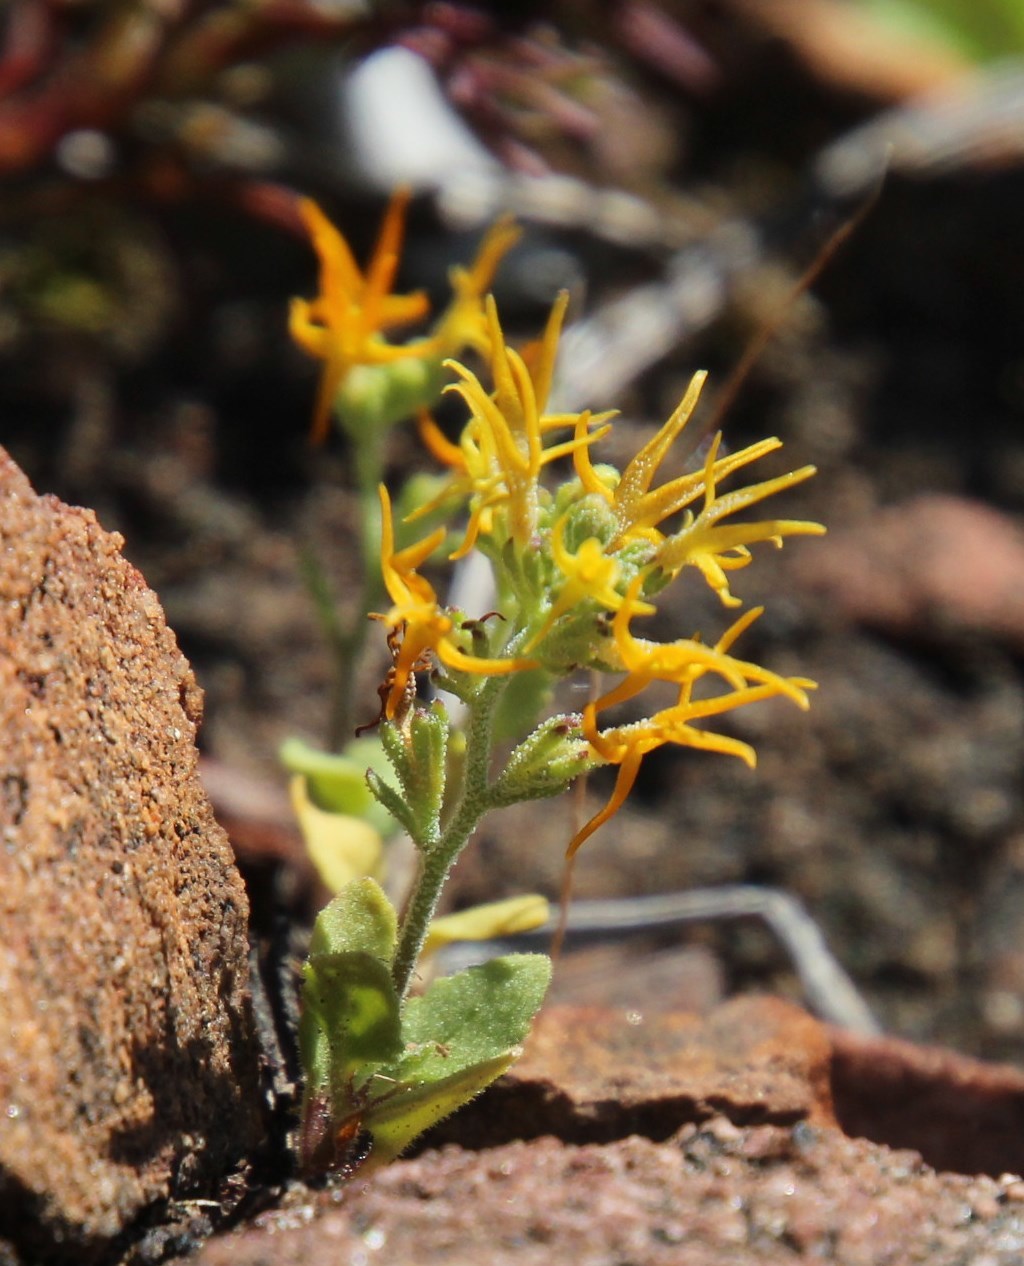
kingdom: Plantae
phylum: Tracheophyta
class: Magnoliopsida
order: Lamiales
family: Scrophulariaceae
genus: Manulea
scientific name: Manulea cheiranthus
